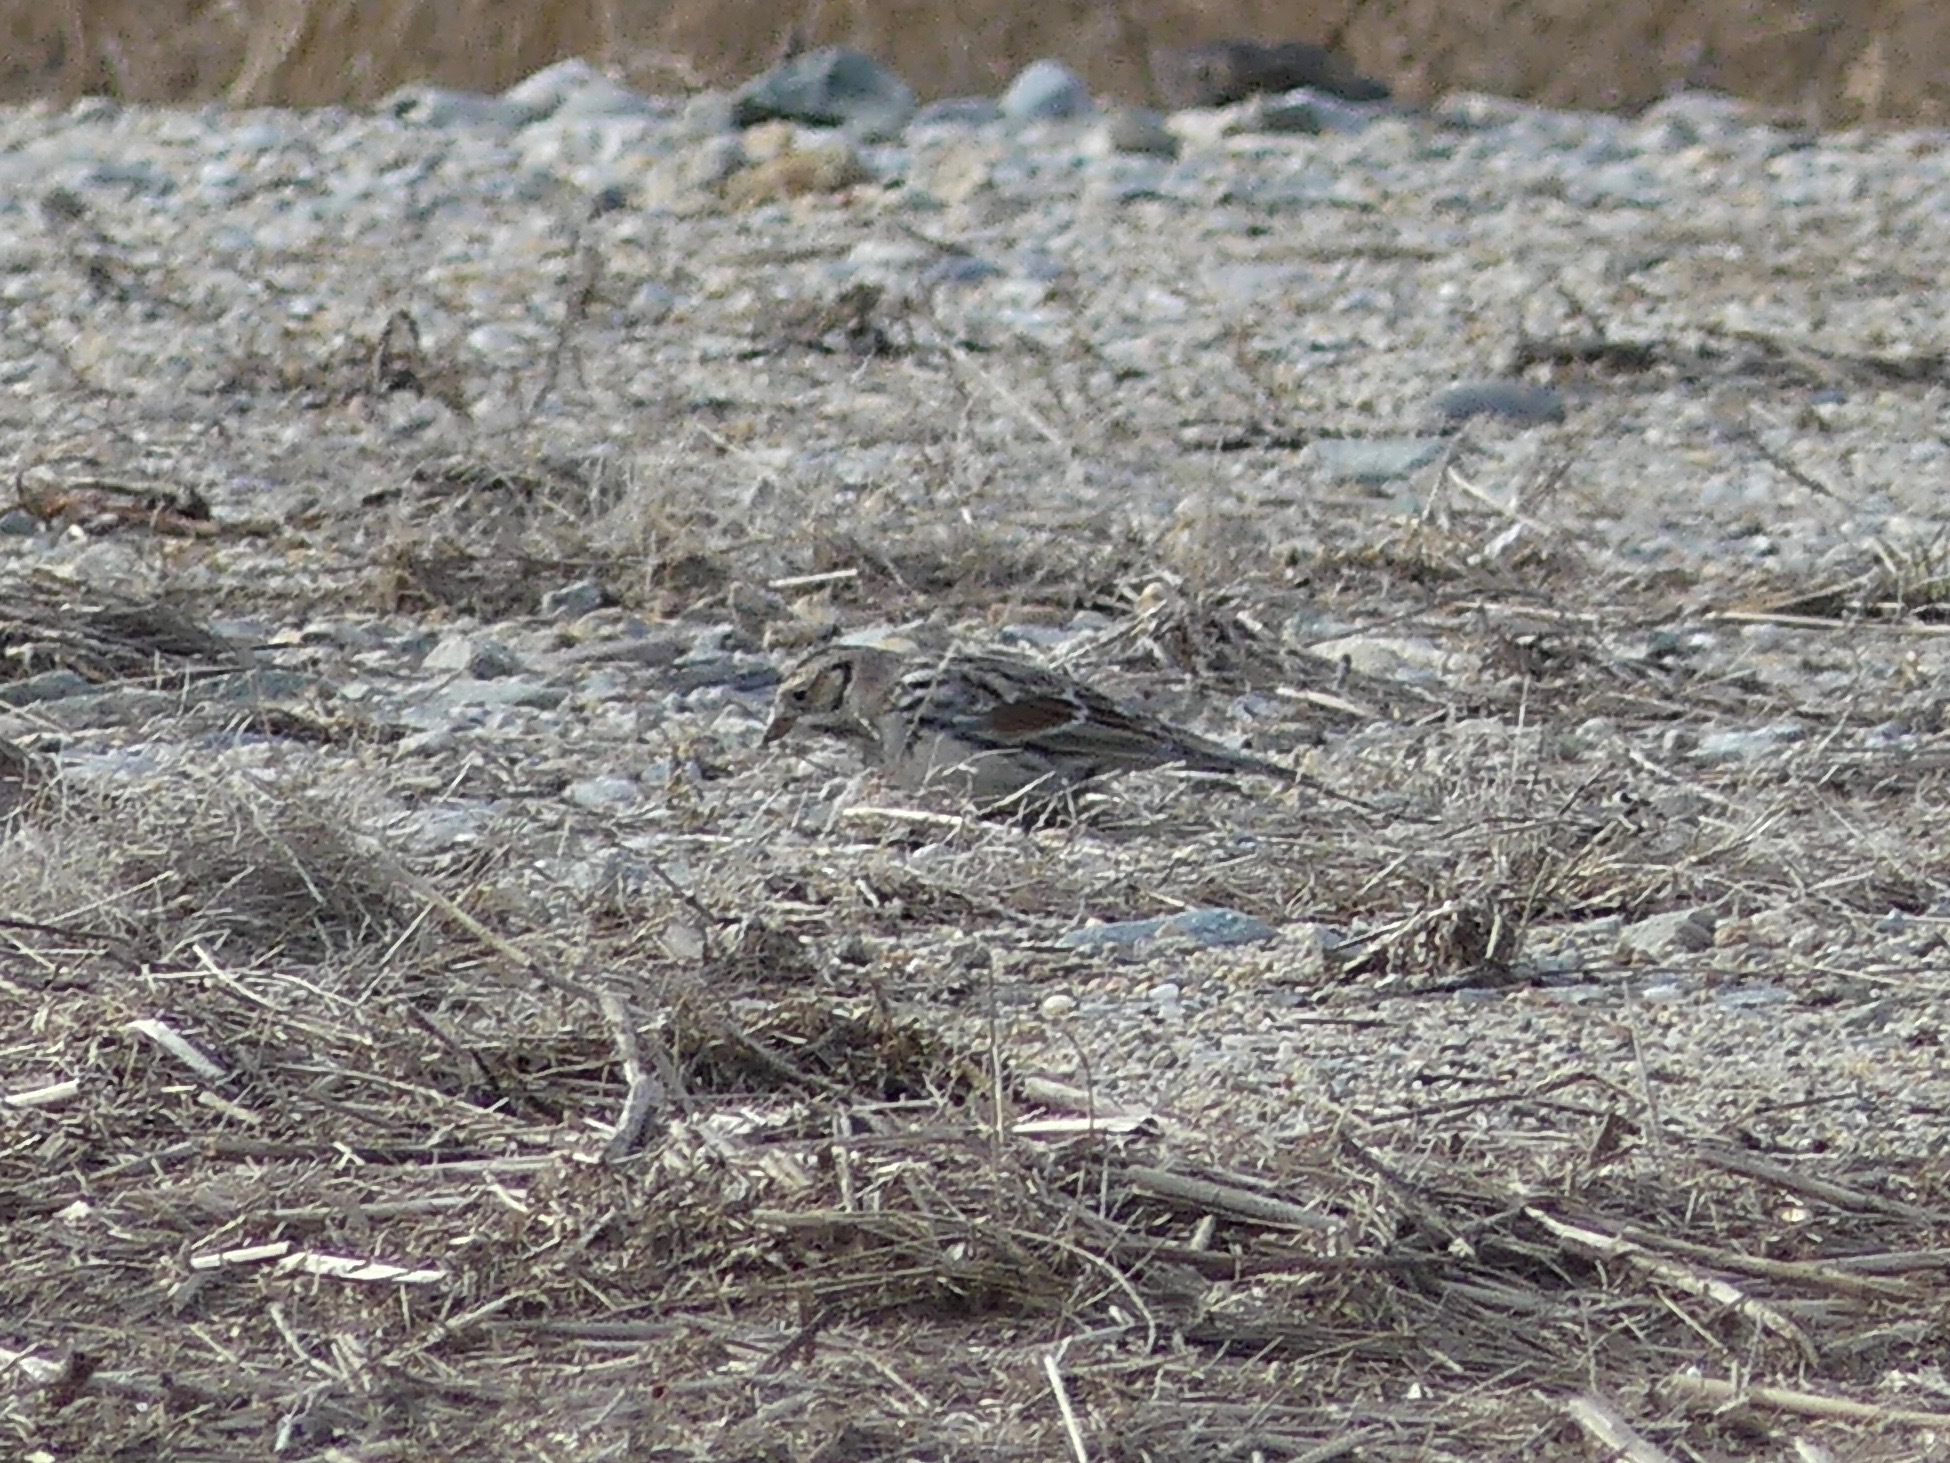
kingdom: Animalia
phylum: Chordata
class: Aves
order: Passeriformes
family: Calcariidae
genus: Calcarius
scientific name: Calcarius lapponicus
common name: Lapland longspur
